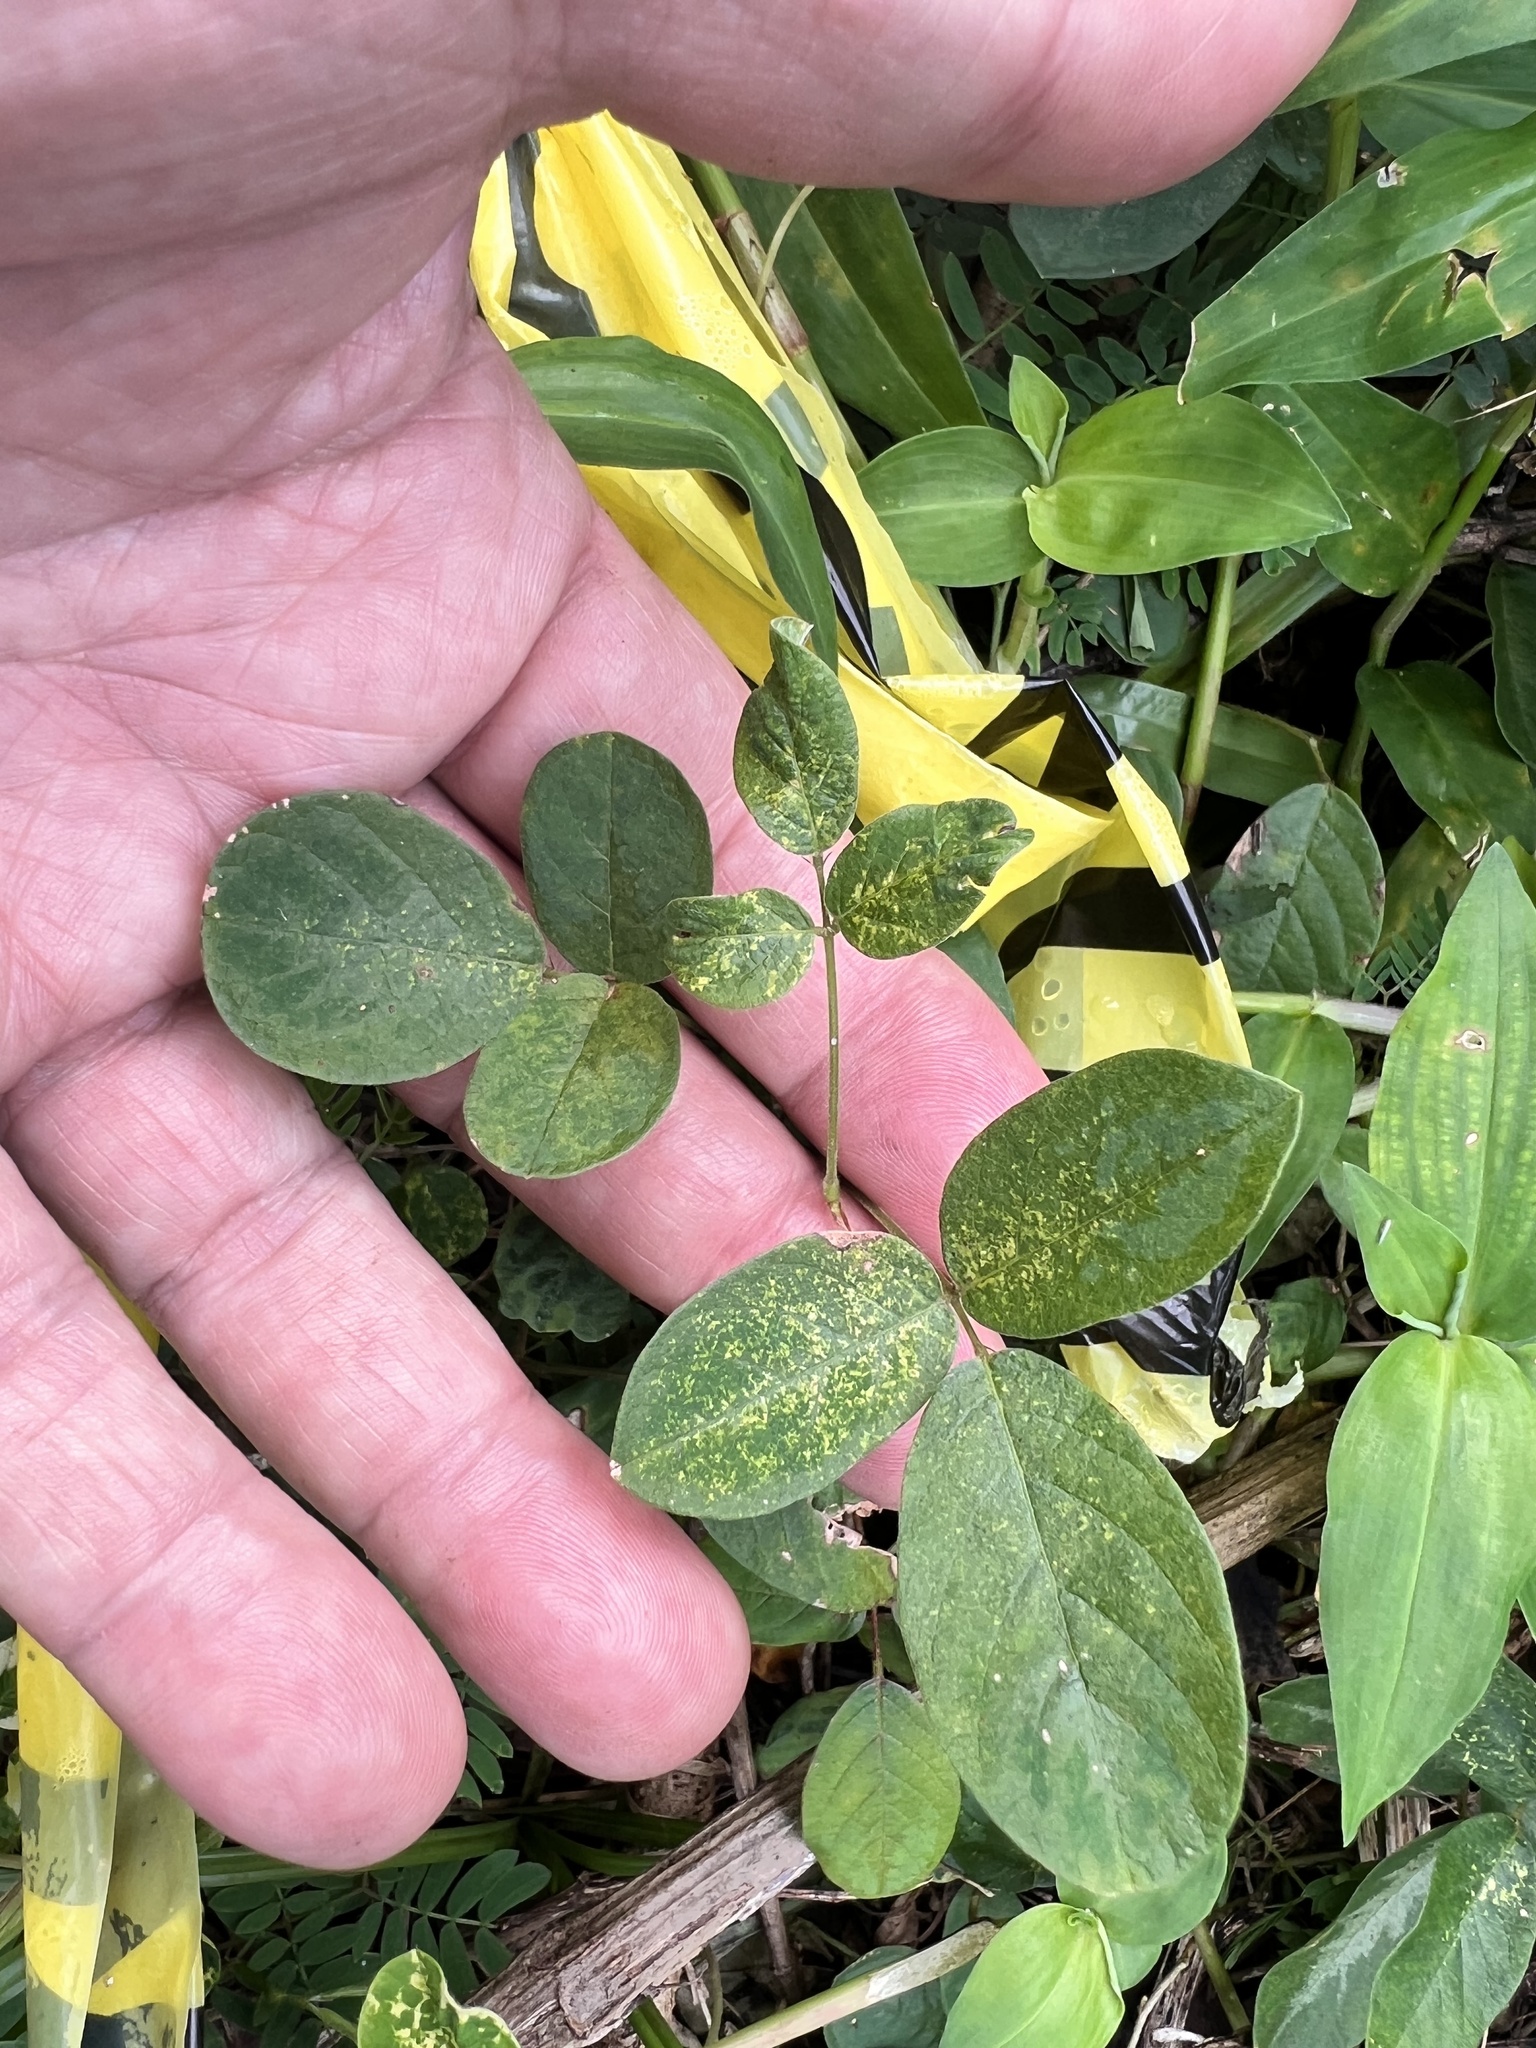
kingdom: Plantae
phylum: Tracheophyta
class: Magnoliopsida
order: Fabales
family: Fabaceae
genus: Desmodium
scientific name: Desmodium incanum
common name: Tickclover
